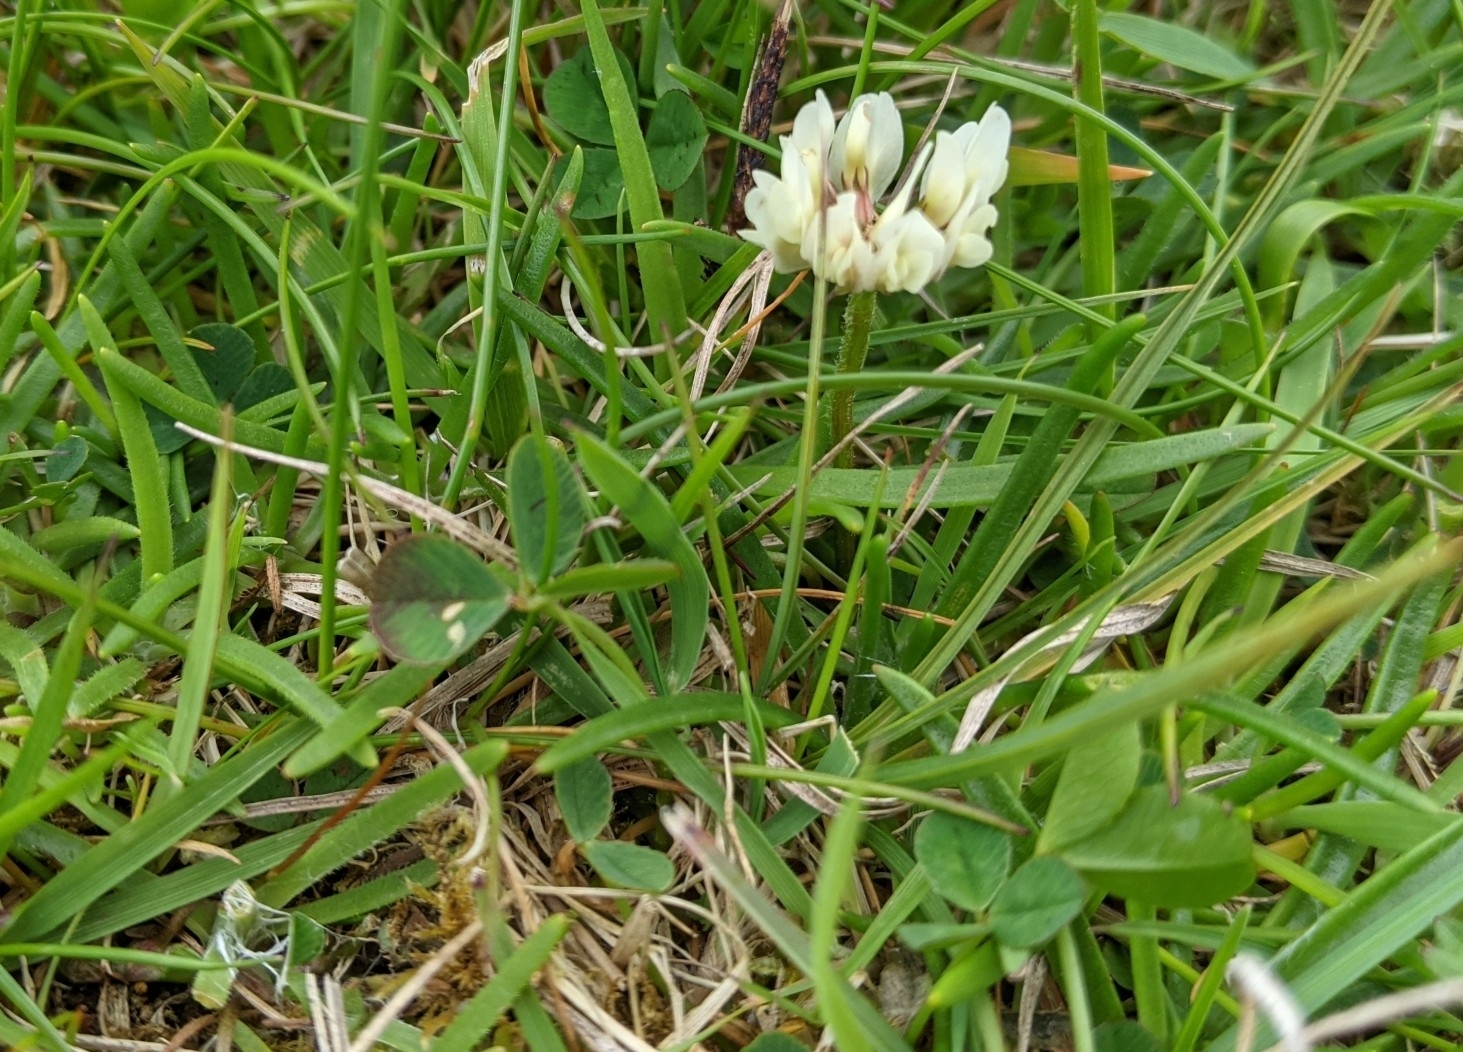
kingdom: Plantae
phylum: Tracheophyta
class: Magnoliopsida
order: Fabales
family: Fabaceae
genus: Trifolium
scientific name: Trifolium repens
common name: White clover
